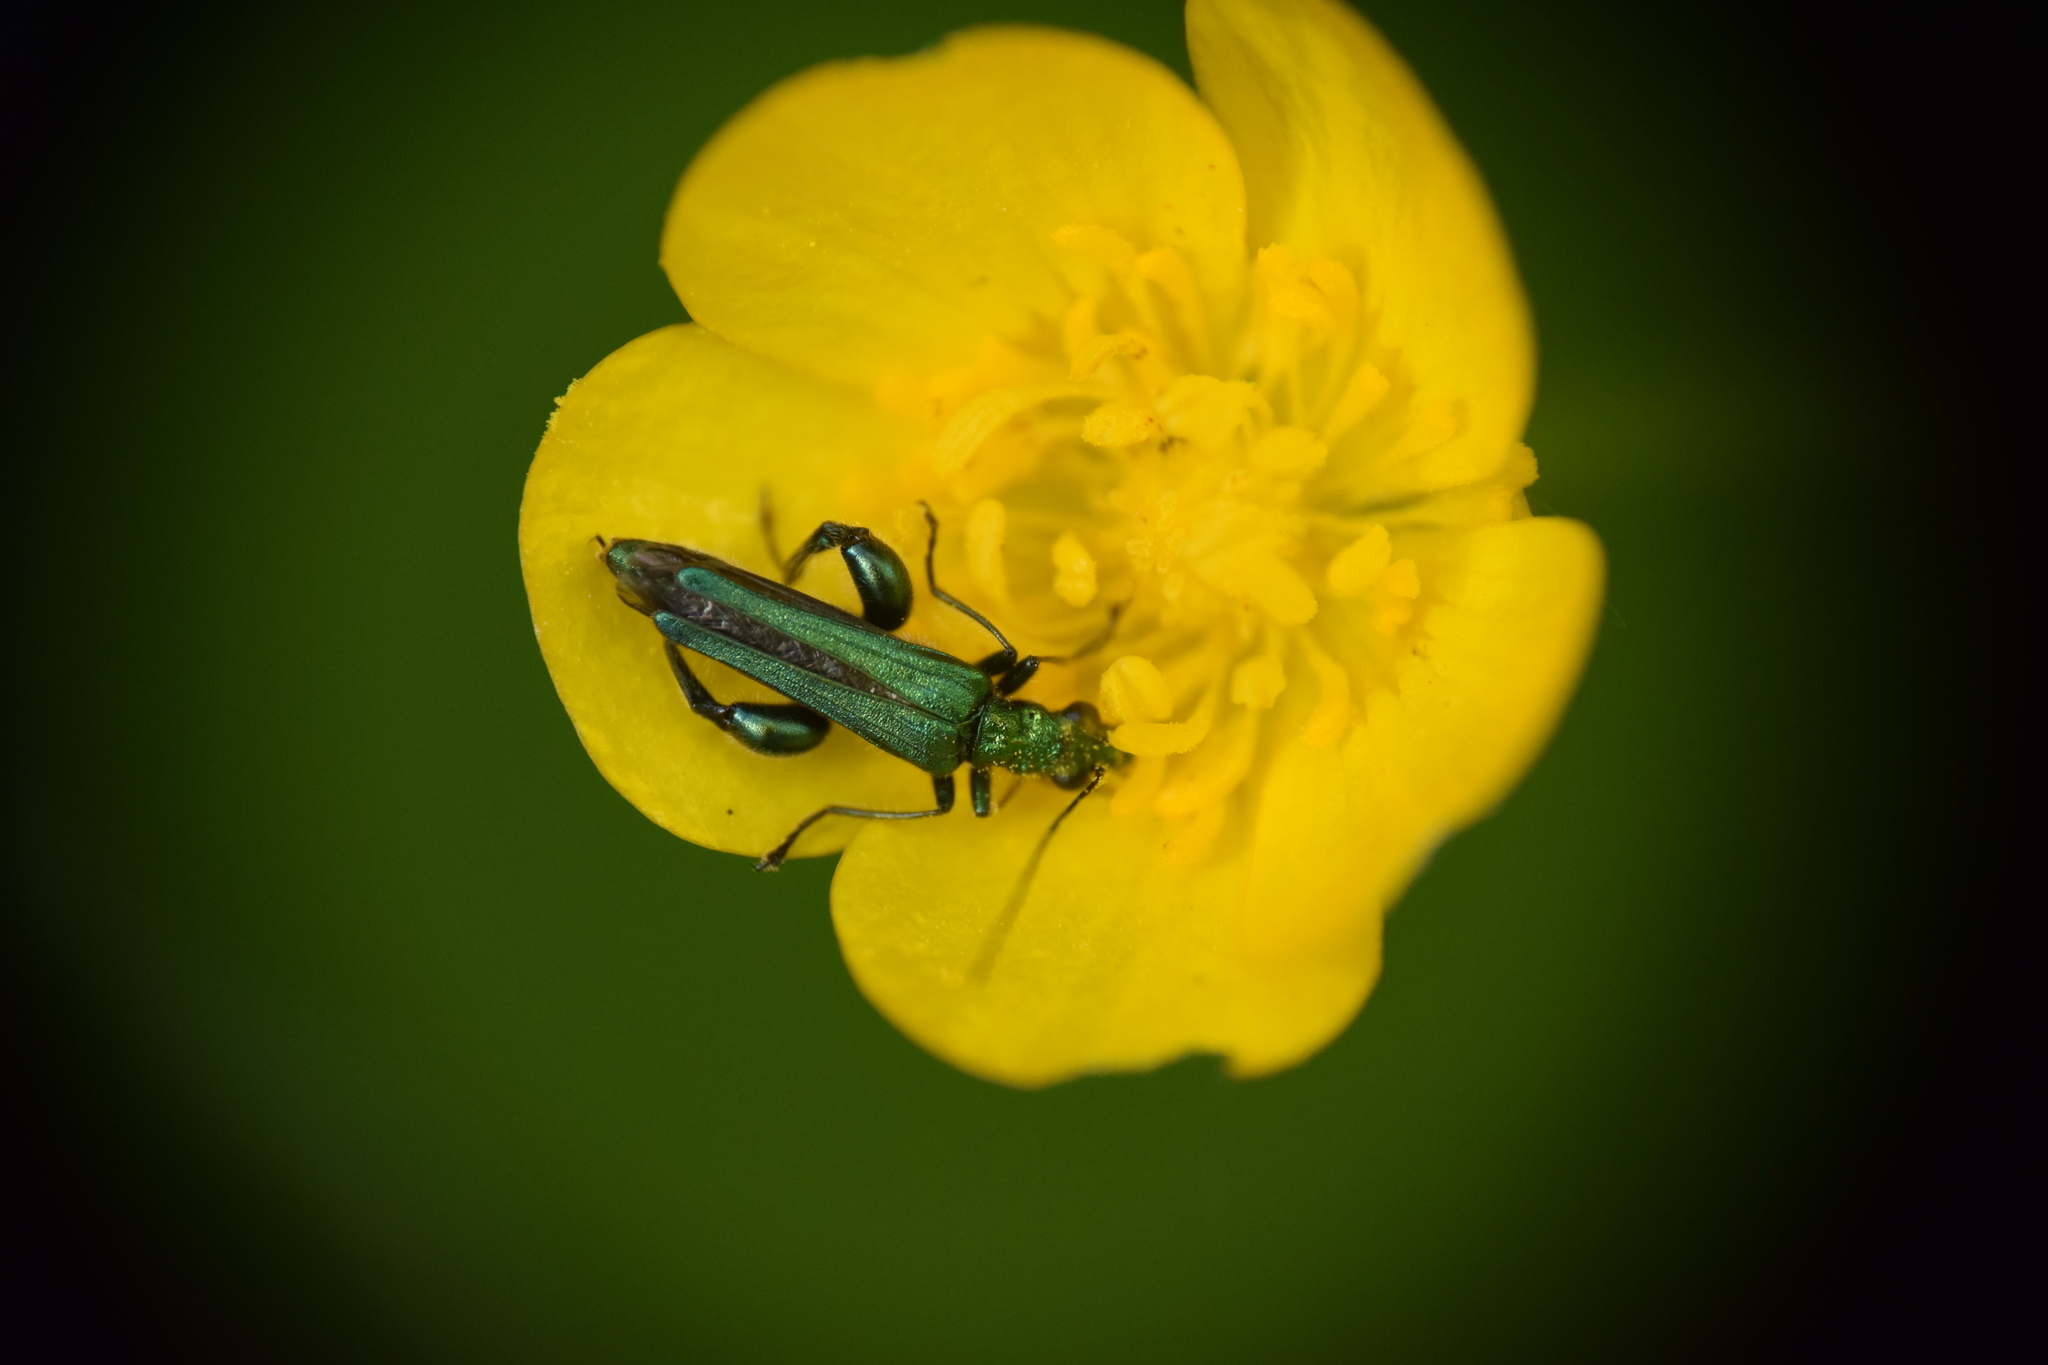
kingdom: Animalia
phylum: Arthropoda
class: Insecta
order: Coleoptera
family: Oedemeridae
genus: Oedemera
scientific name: Oedemera nobilis
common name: Swollen-thighed beetle
